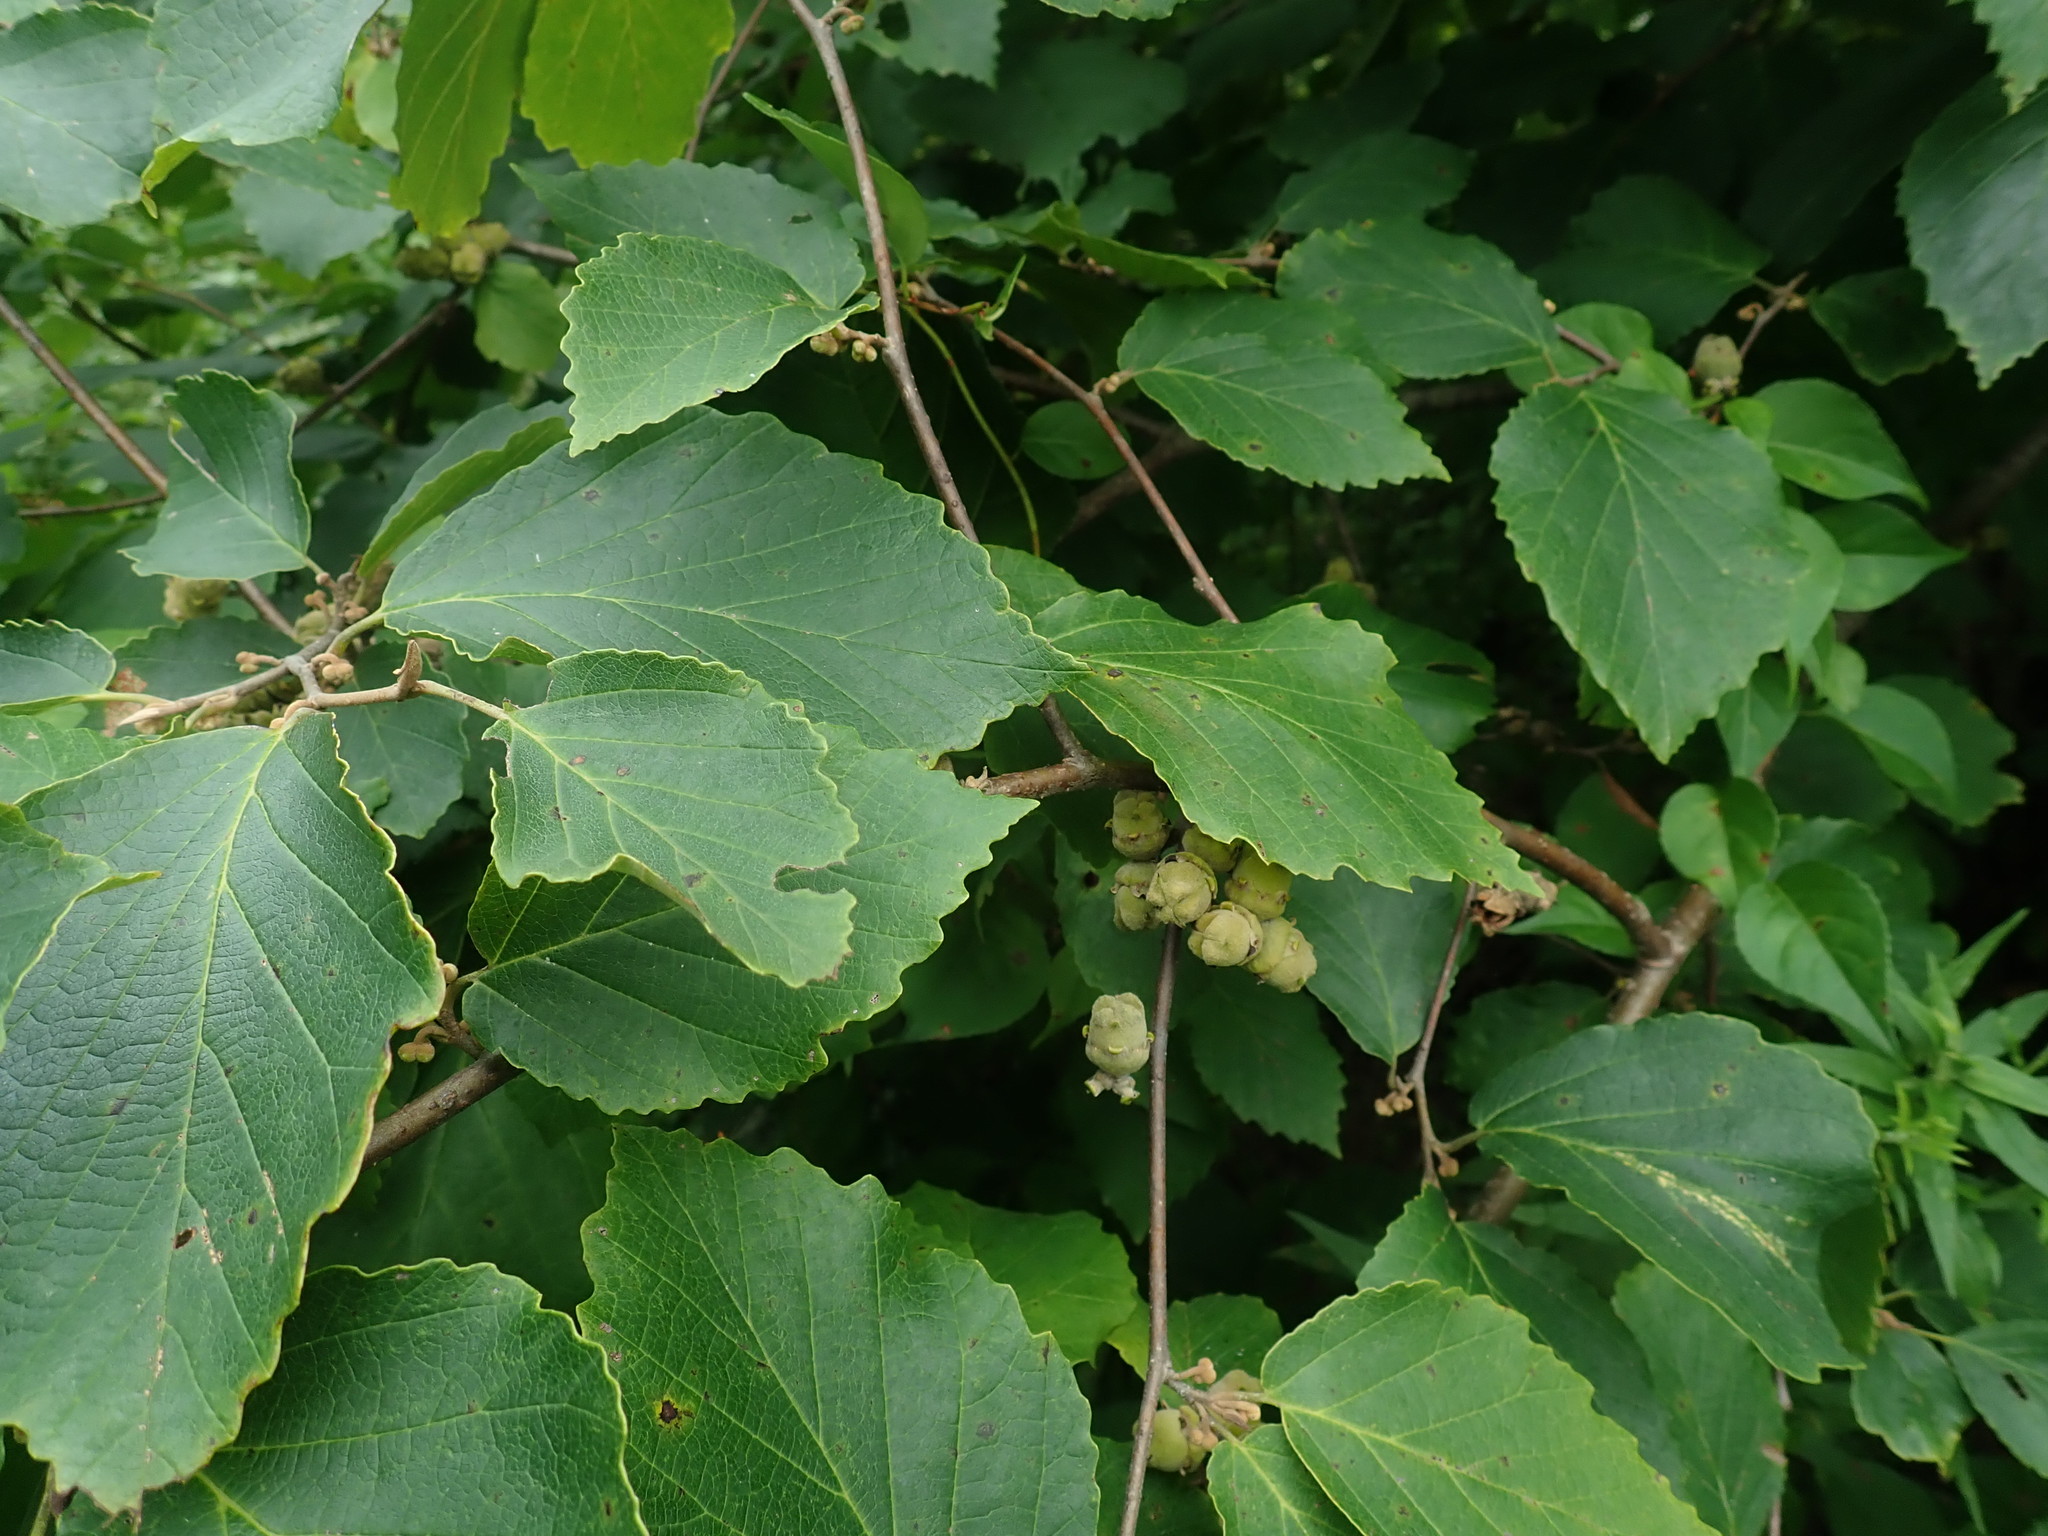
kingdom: Plantae
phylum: Tracheophyta
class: Magnoliopsida
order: Saxifragales
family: Hamamelidaceae
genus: Hamamelis
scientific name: Hamamelis virginiana
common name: Witch-hazel
